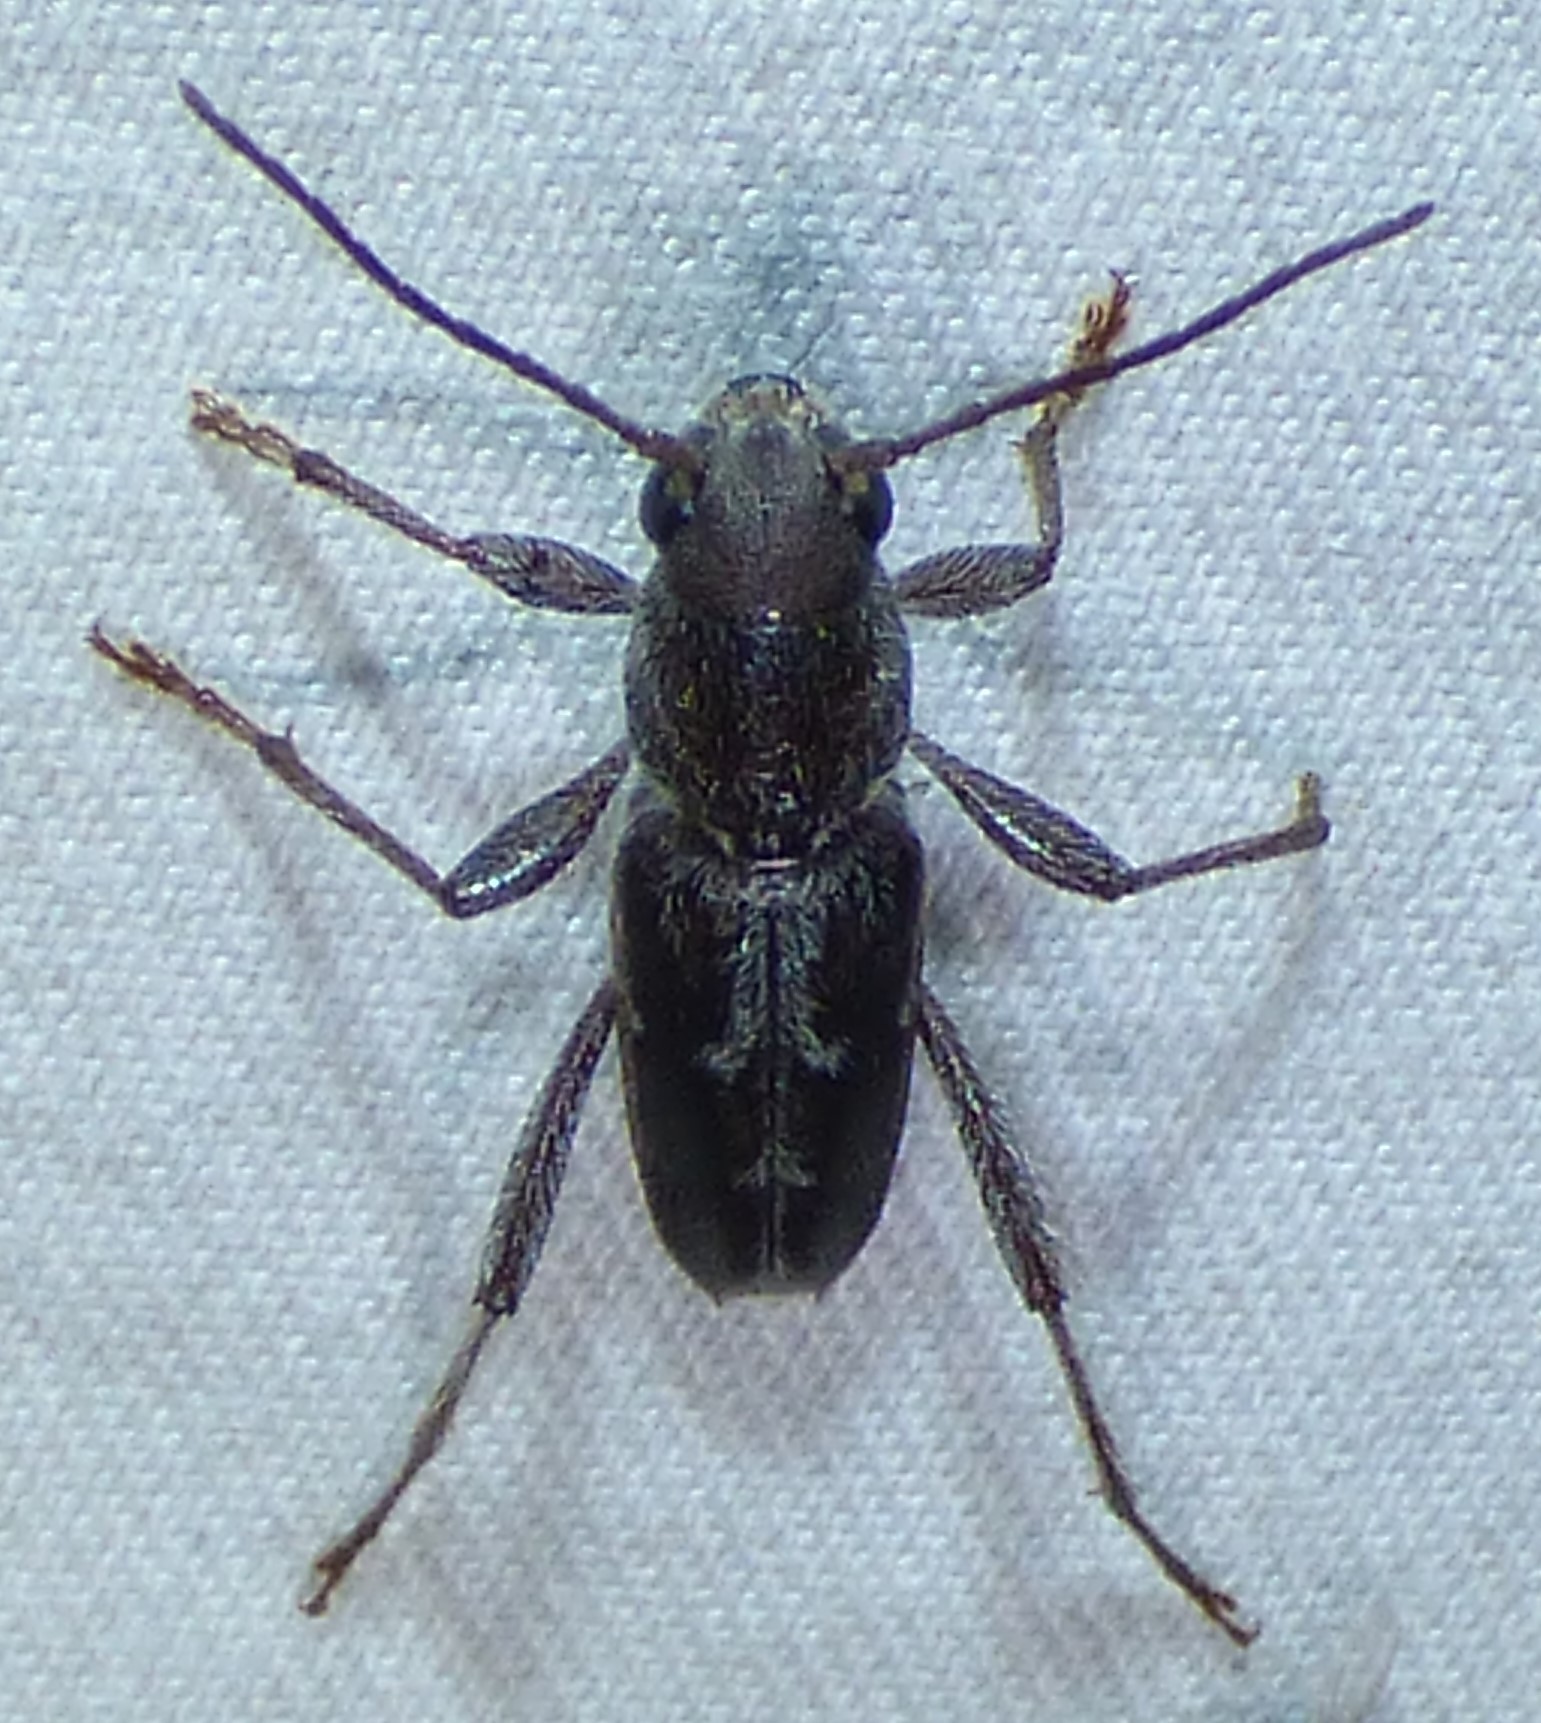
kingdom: Animalia
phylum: Arthropoda
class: Insecta
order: Coleoptera
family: Cerambycidae
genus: Xylotrechus
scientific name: Xylotrechus sagittatus
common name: Arrowhead borer
